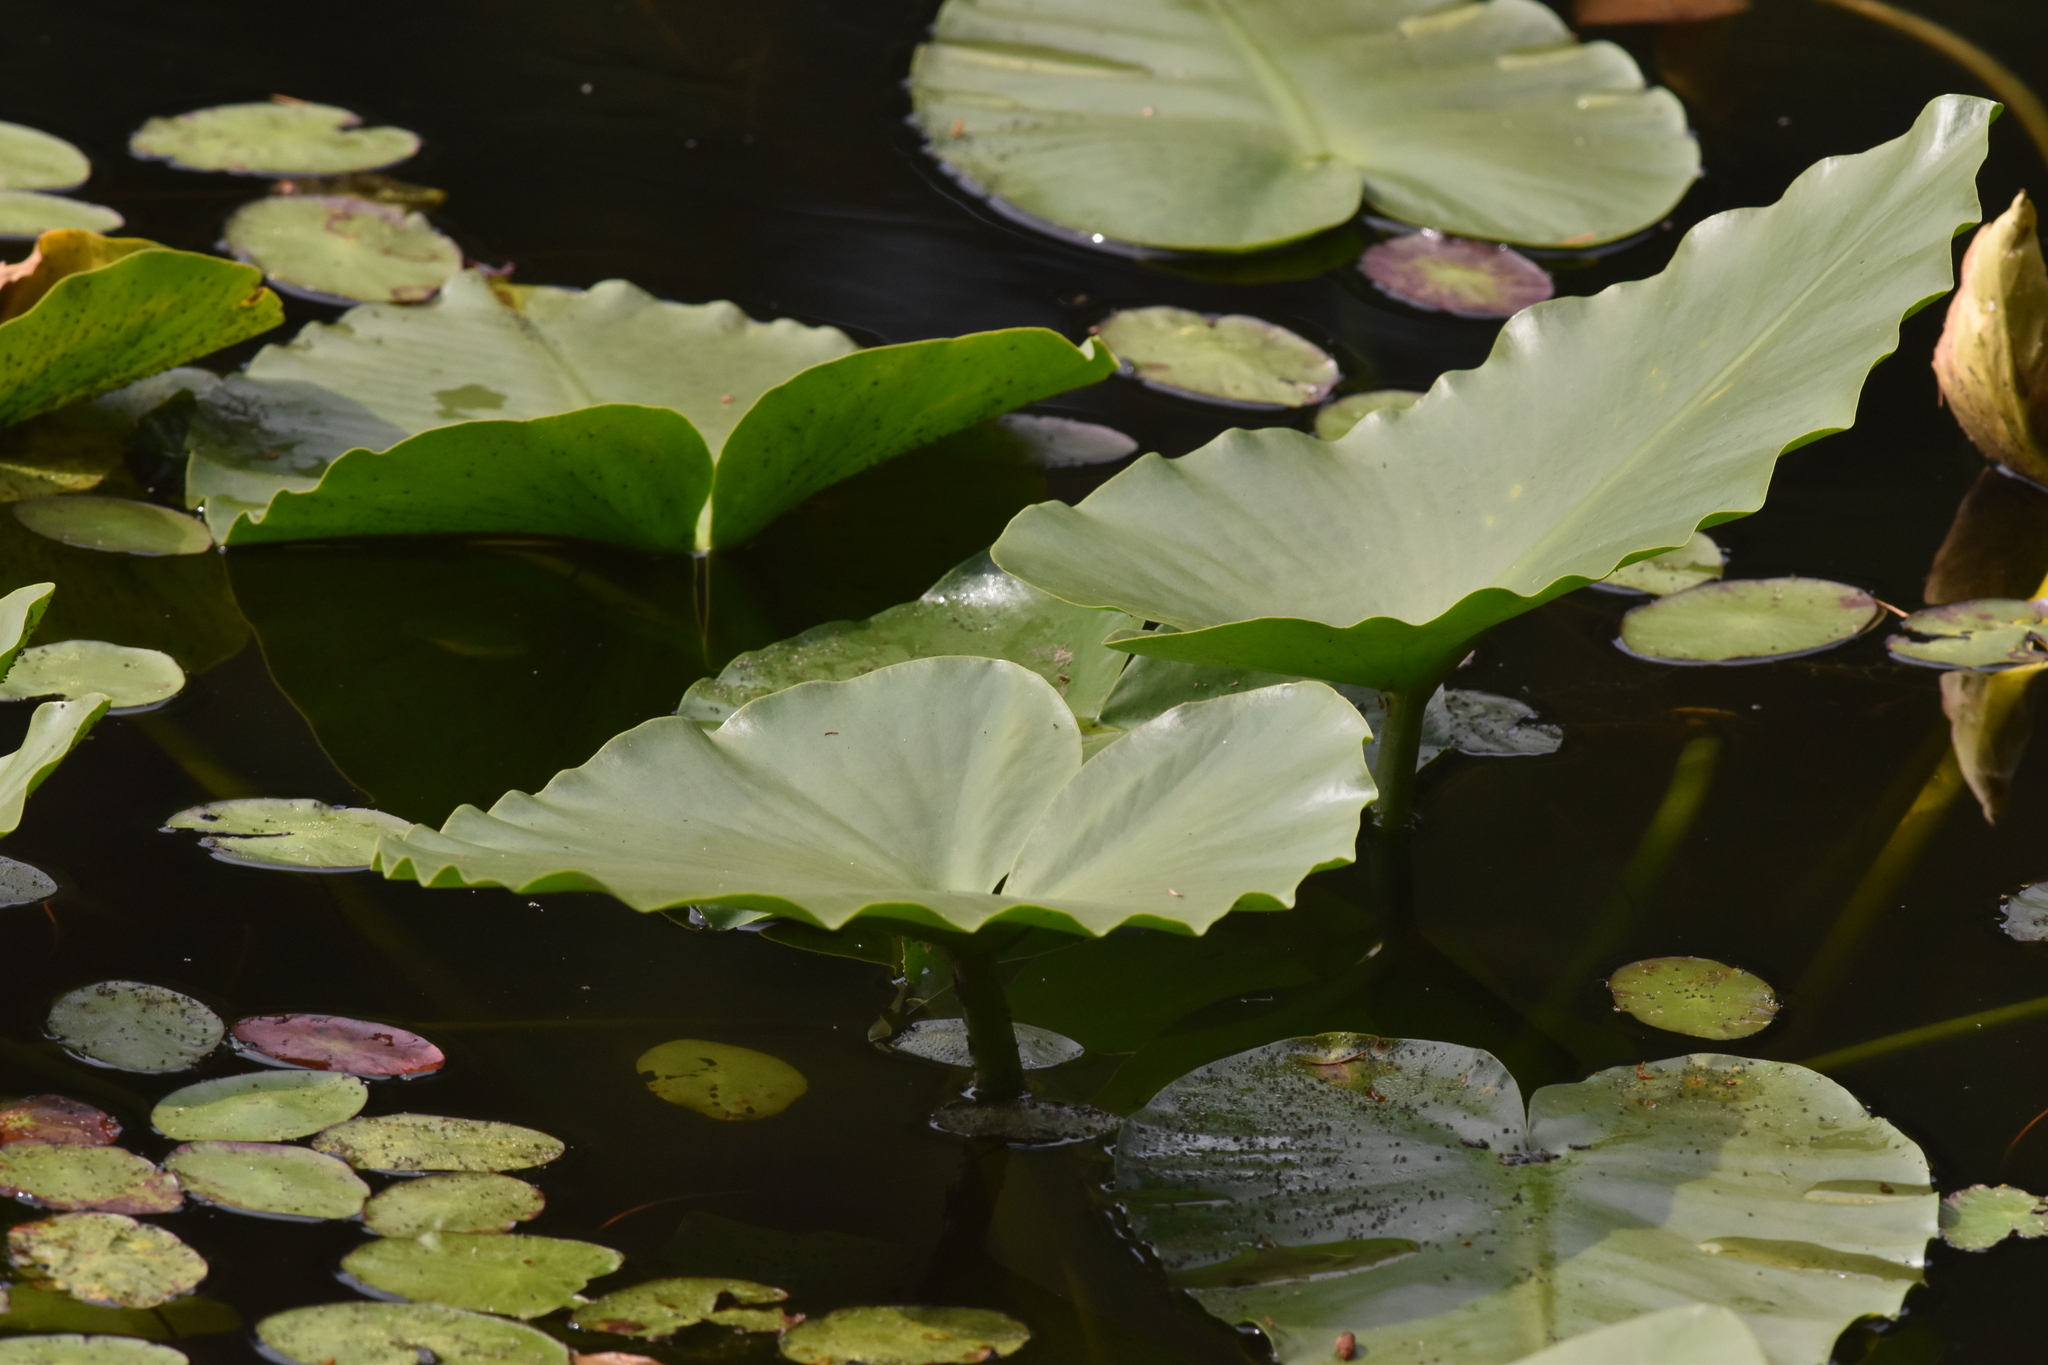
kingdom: Plantae
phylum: Tracheophyta
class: Magnoliopsida
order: Nymphaeales
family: Nymphaeaceae
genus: Nuphar
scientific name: Nuphar polysepala
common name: Rocky mountain cow-lily
